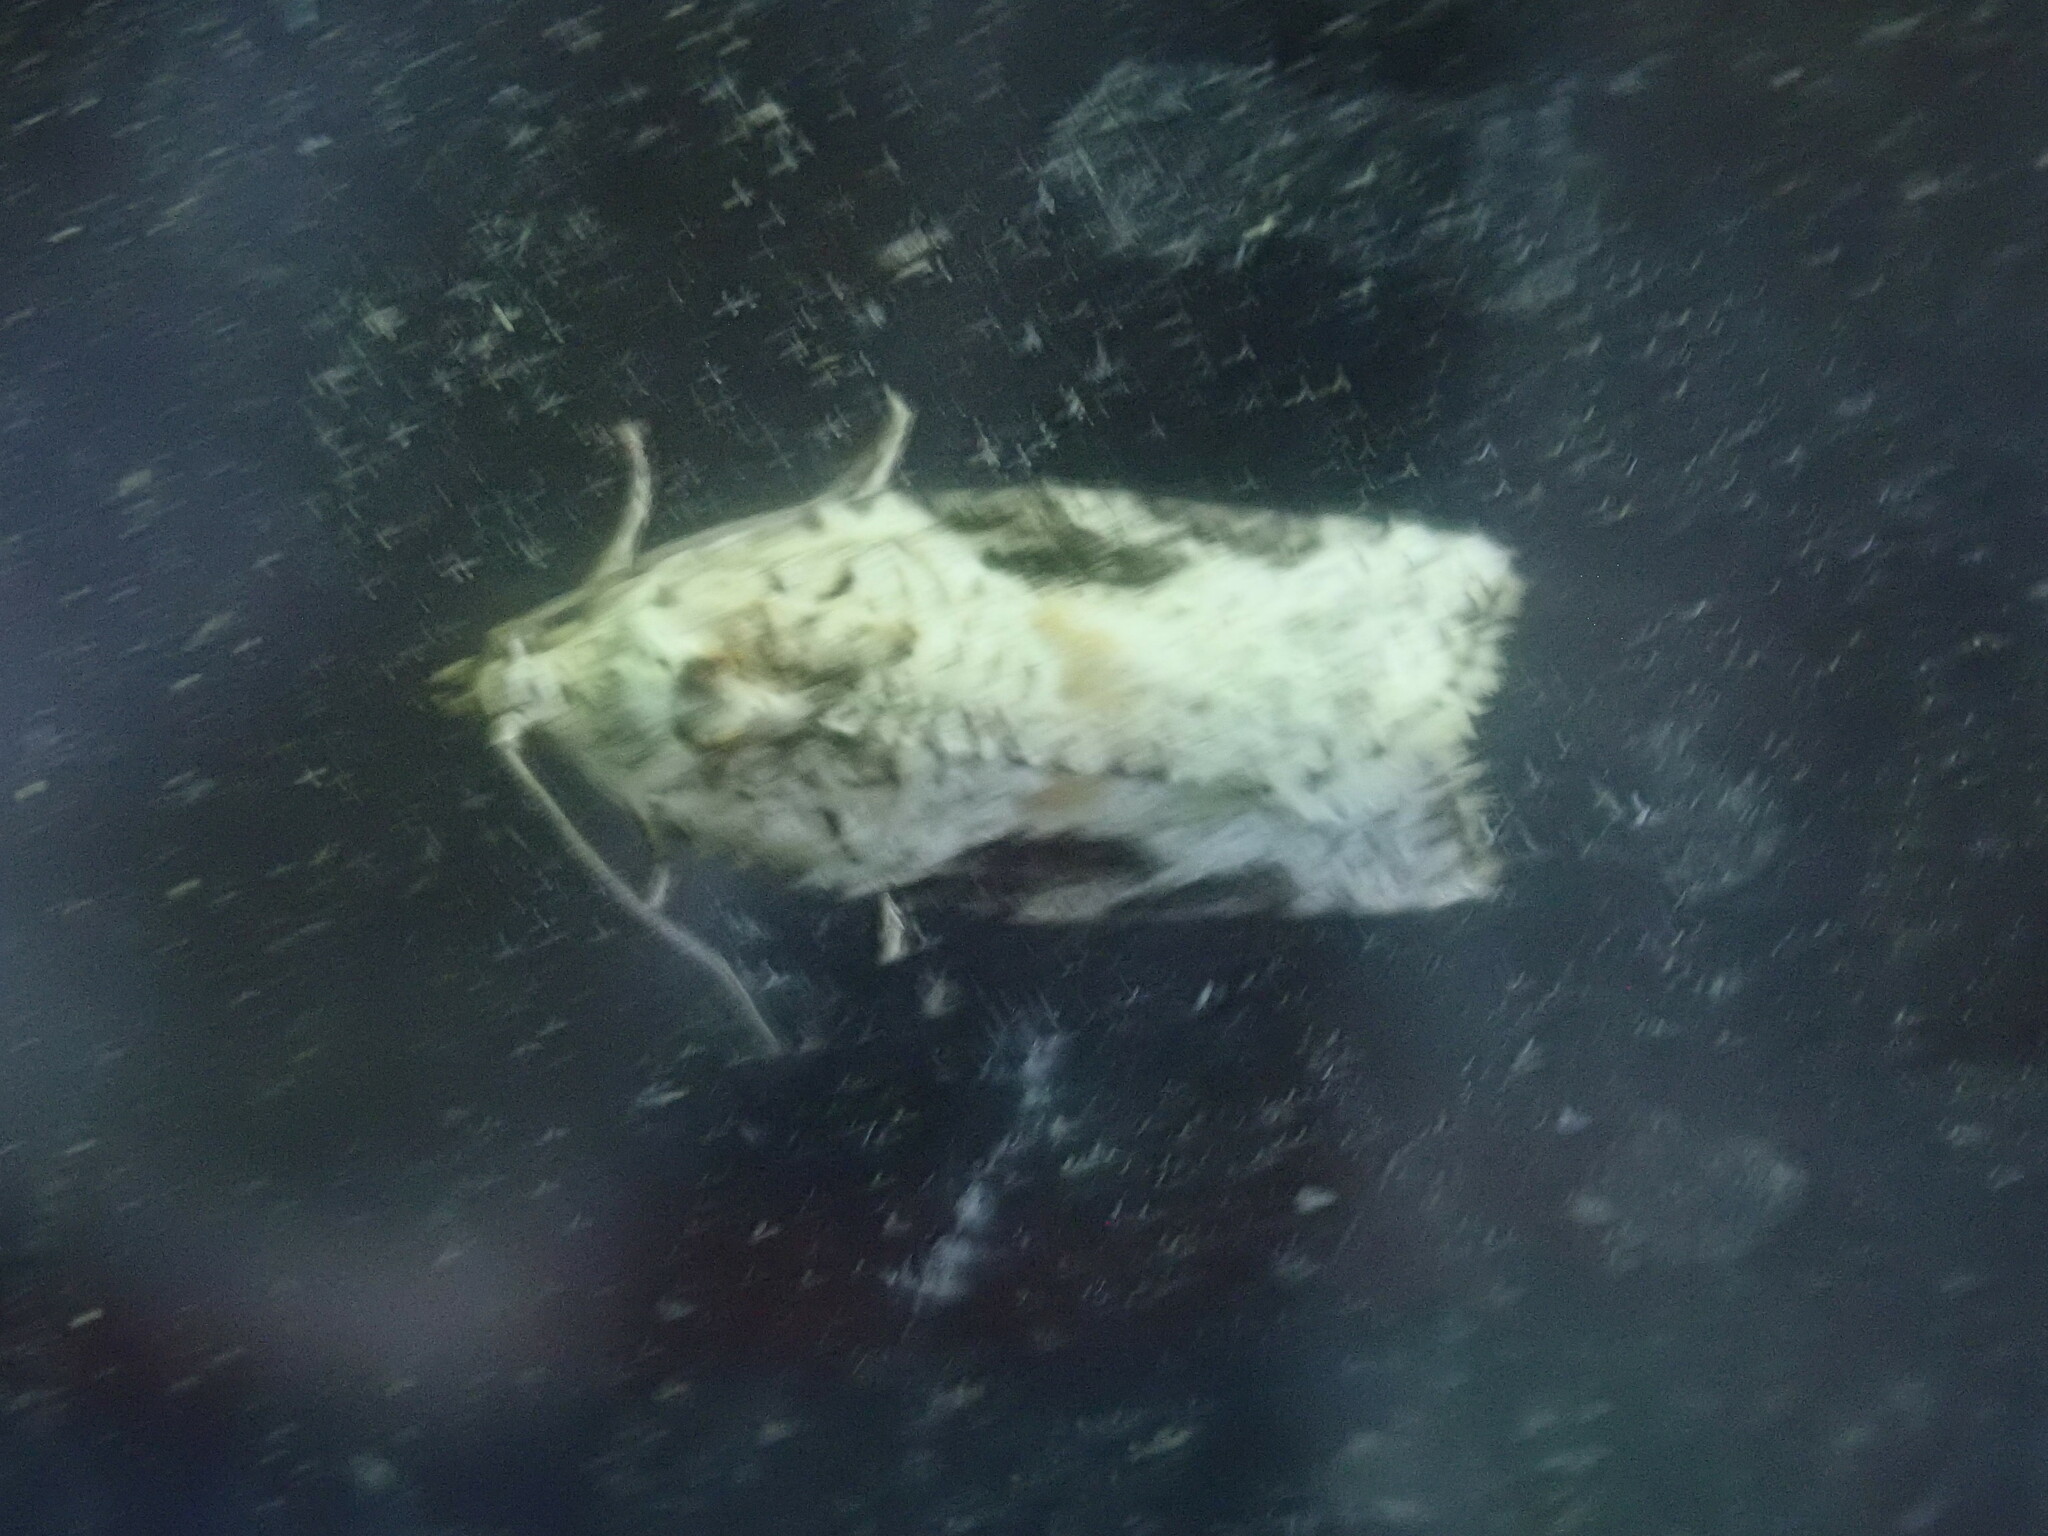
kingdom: Animalia
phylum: Arthropoda
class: Insecta
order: Lepidoptera
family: Tortricidae
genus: Argyrotaenia
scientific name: Argyrotaenia mariana
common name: Gray-banded leafroller moth
